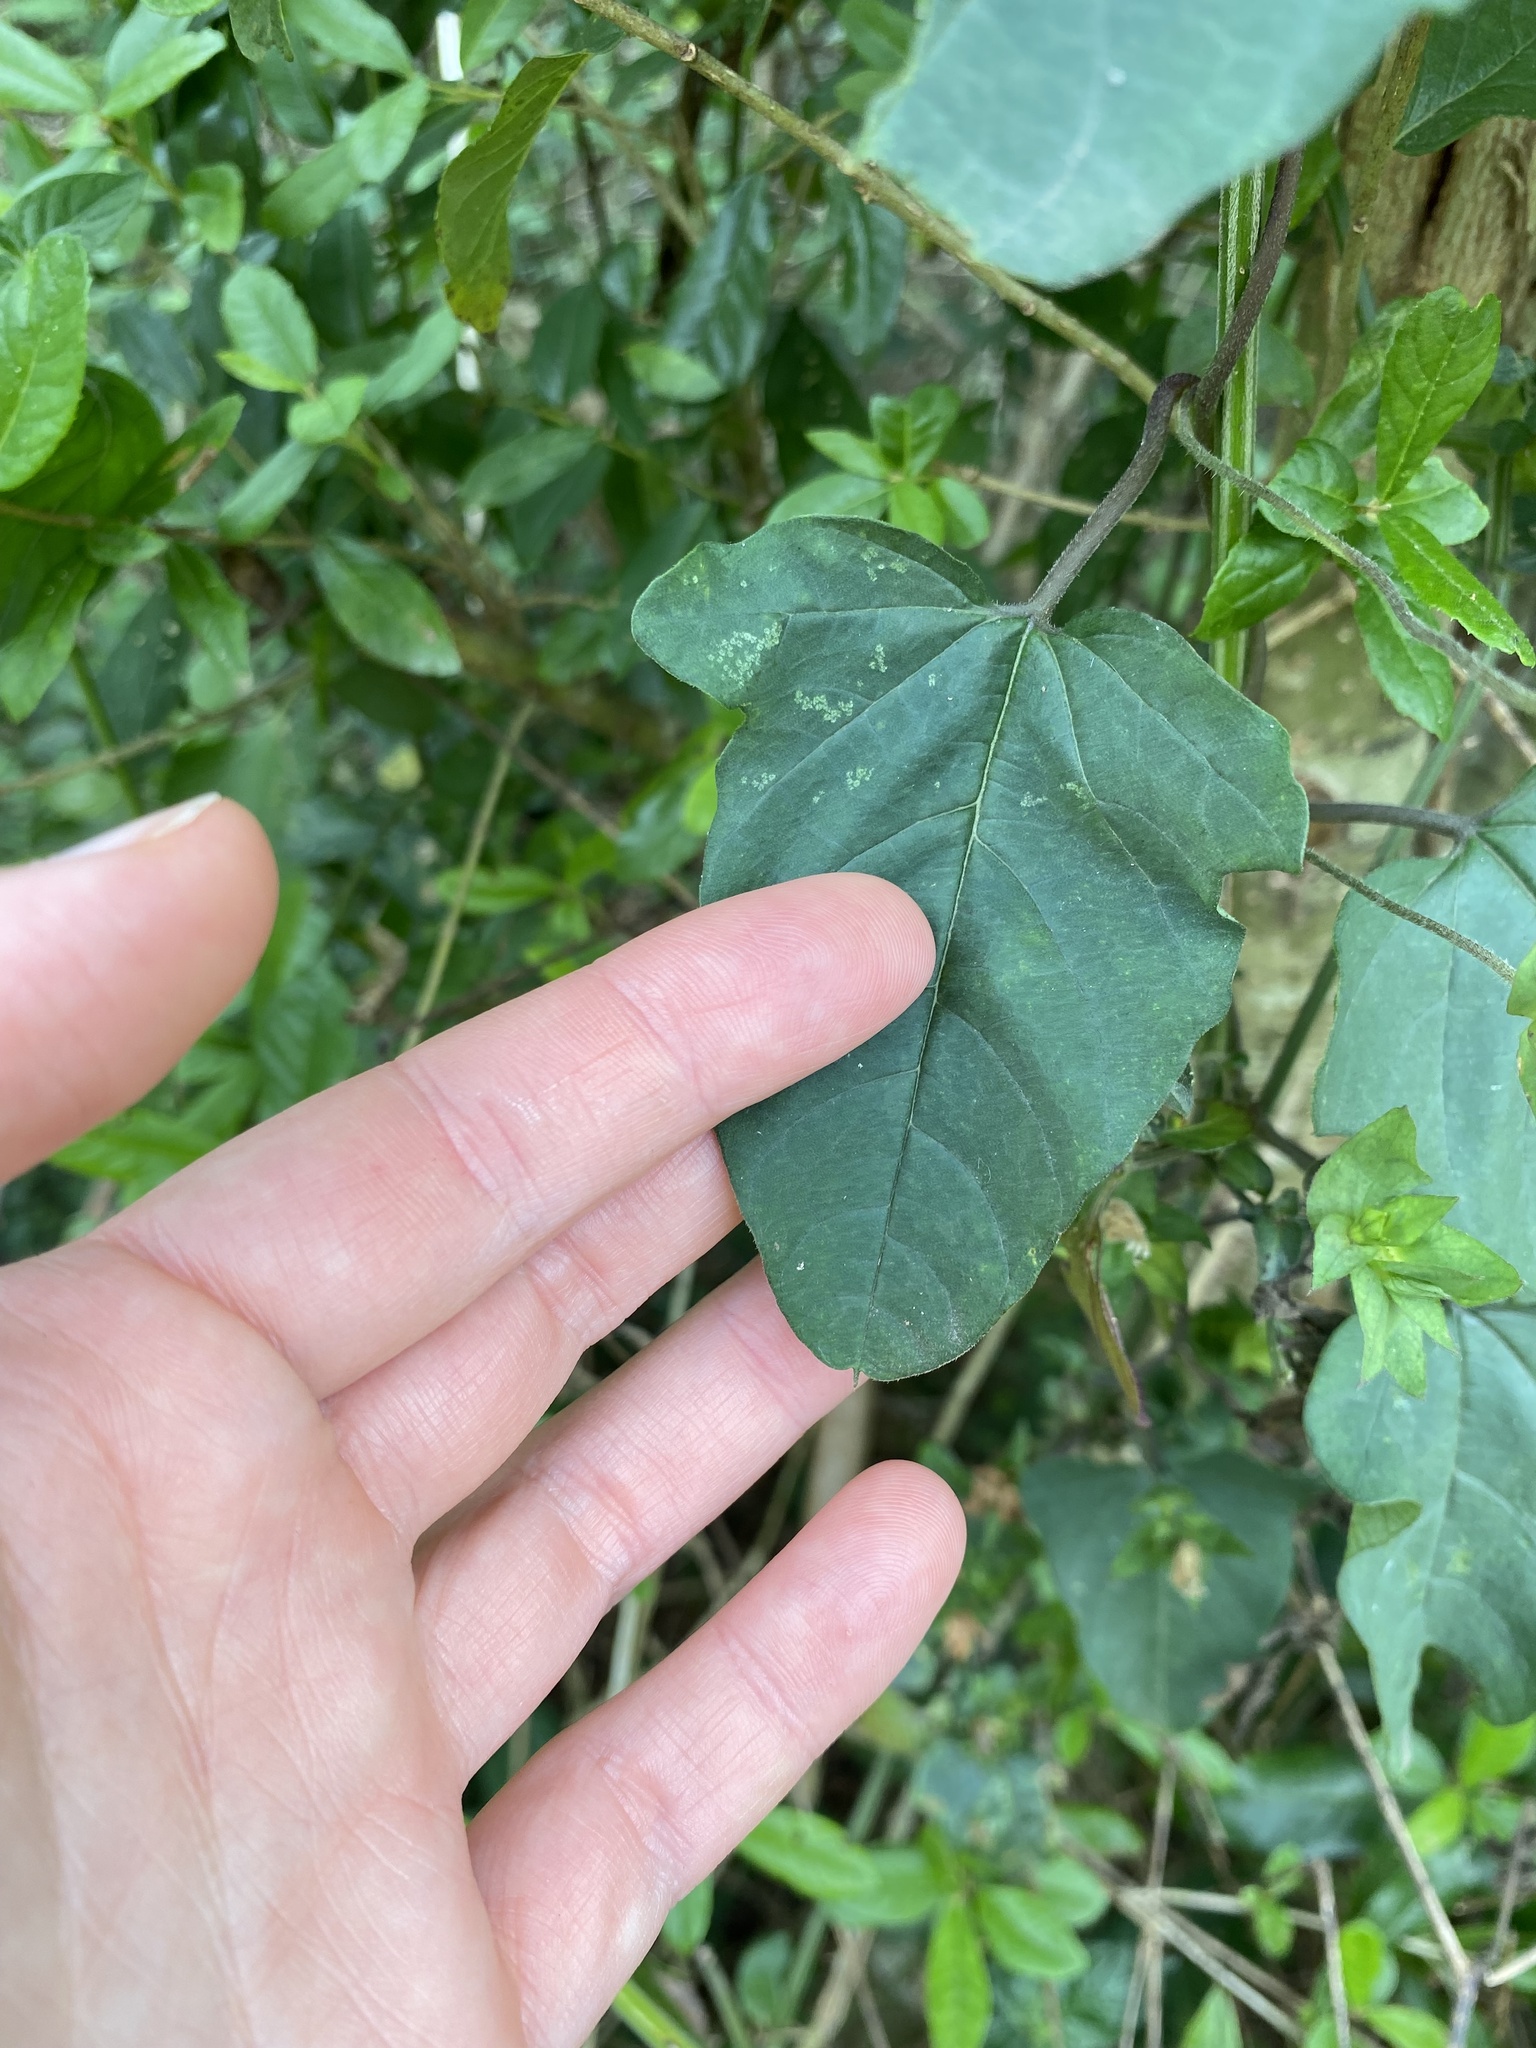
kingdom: Plantae
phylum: Tracheophyta
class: Magnoliopsida
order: Solanales
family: Convolvulaceae
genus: Hewittia
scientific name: Hewittia malabarica
